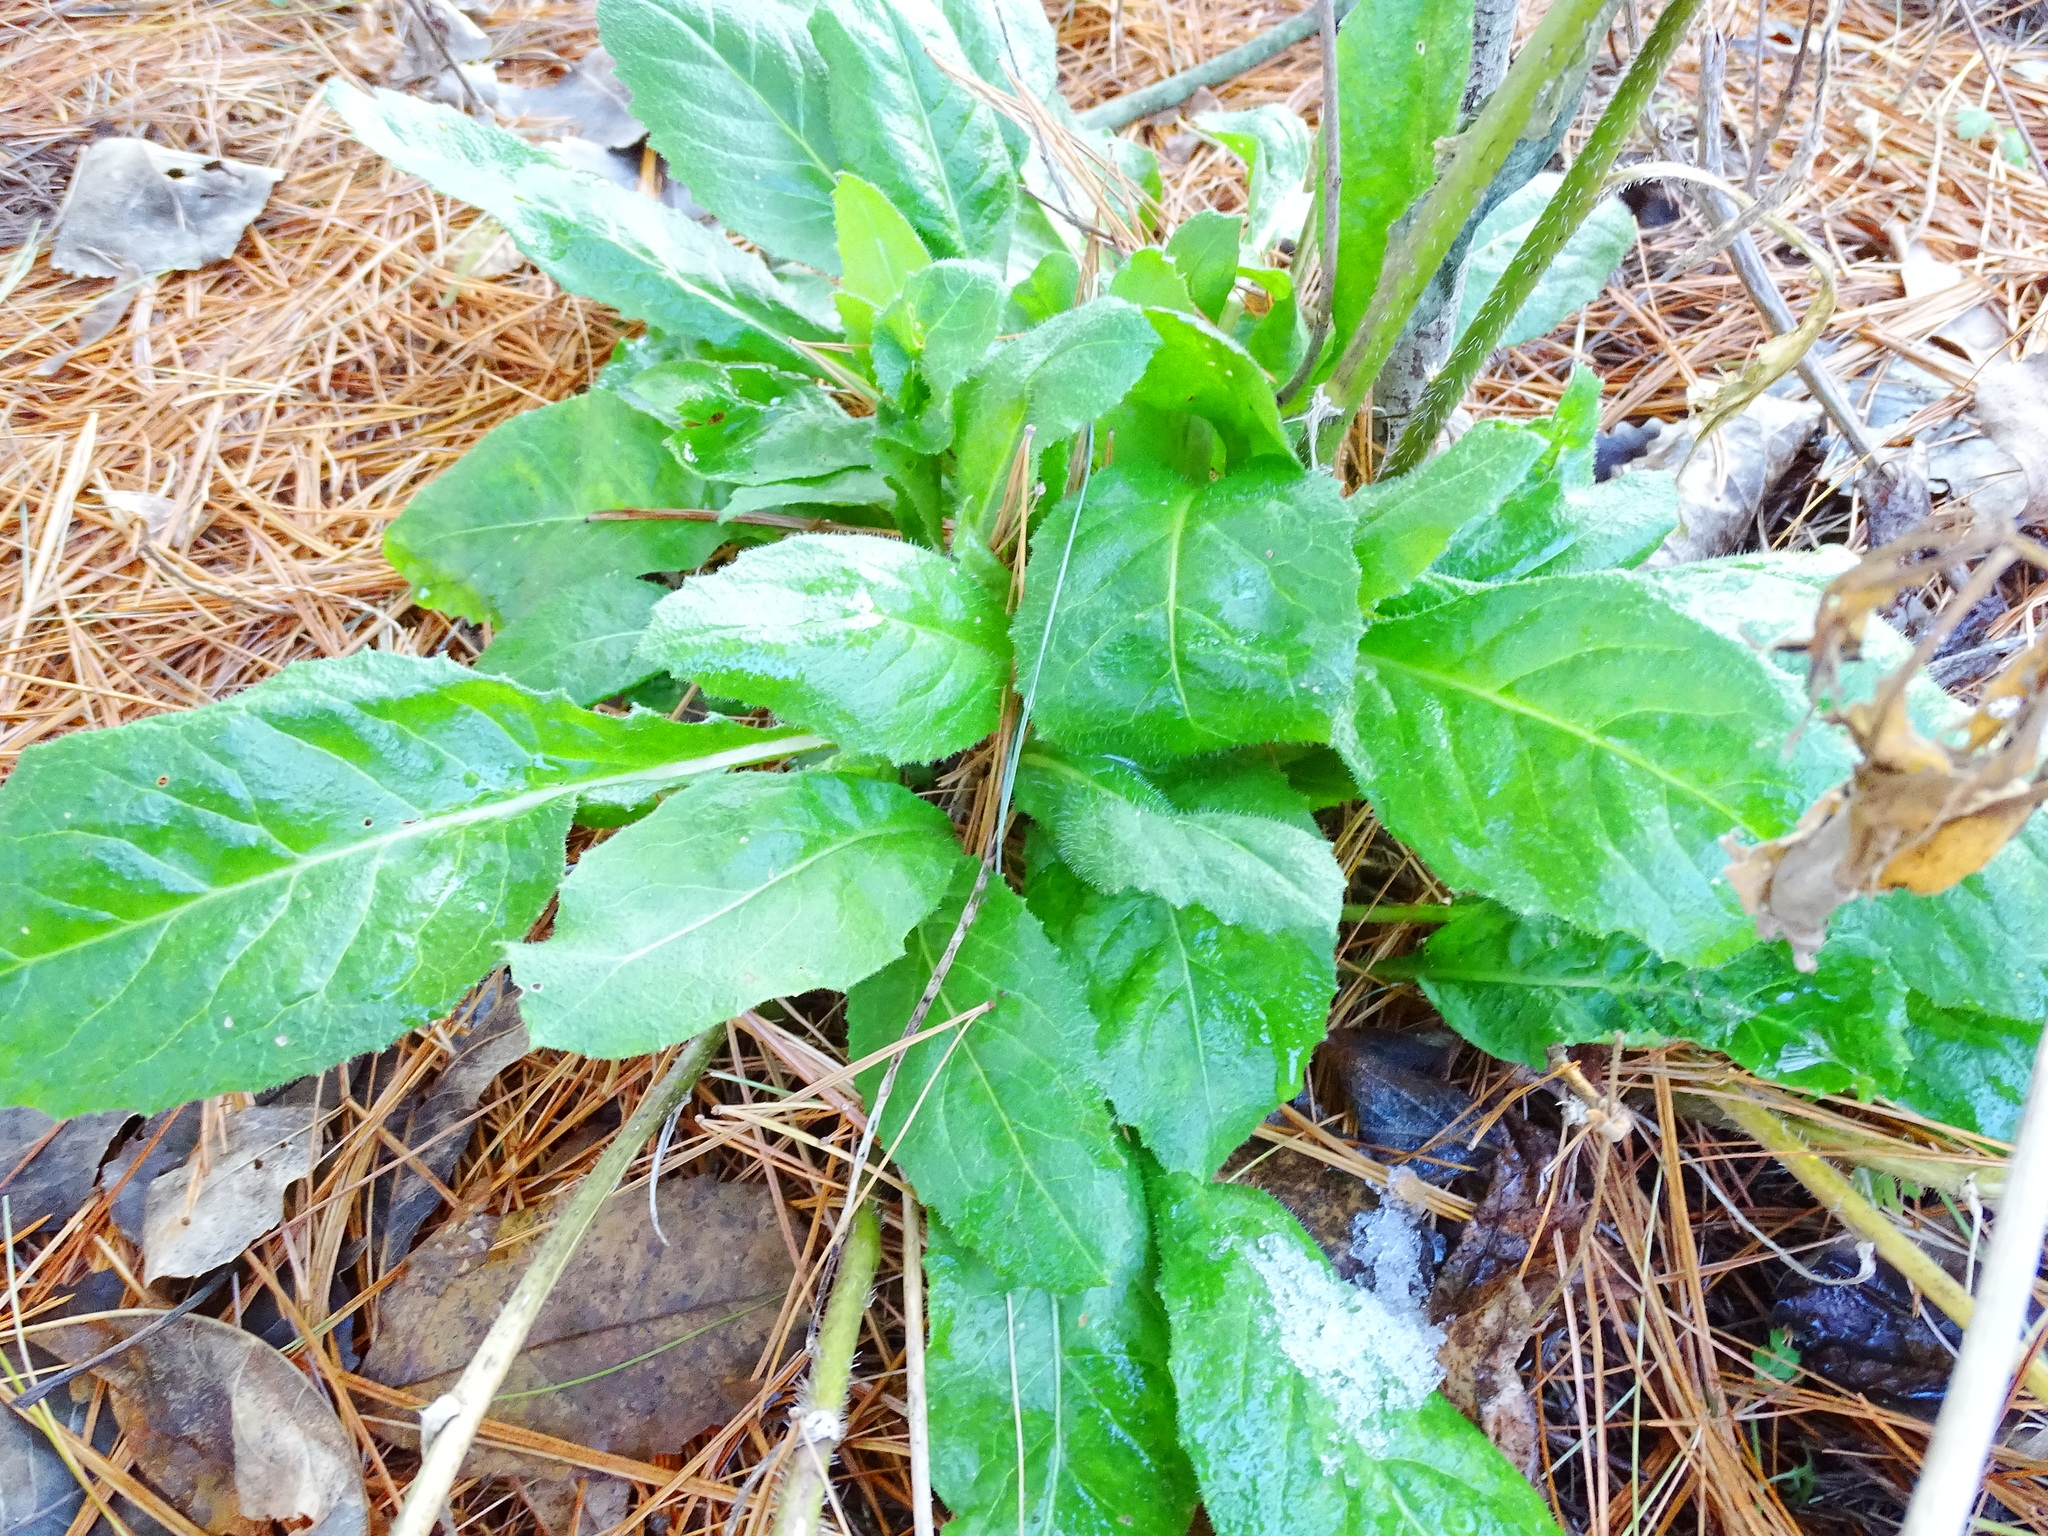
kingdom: Plantae
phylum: Tracheophyta
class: Magnoliopsida
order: Brassicales
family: Brassicaceae
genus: Hesperis
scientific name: Hesperis matronalis
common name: Dame's-violet
